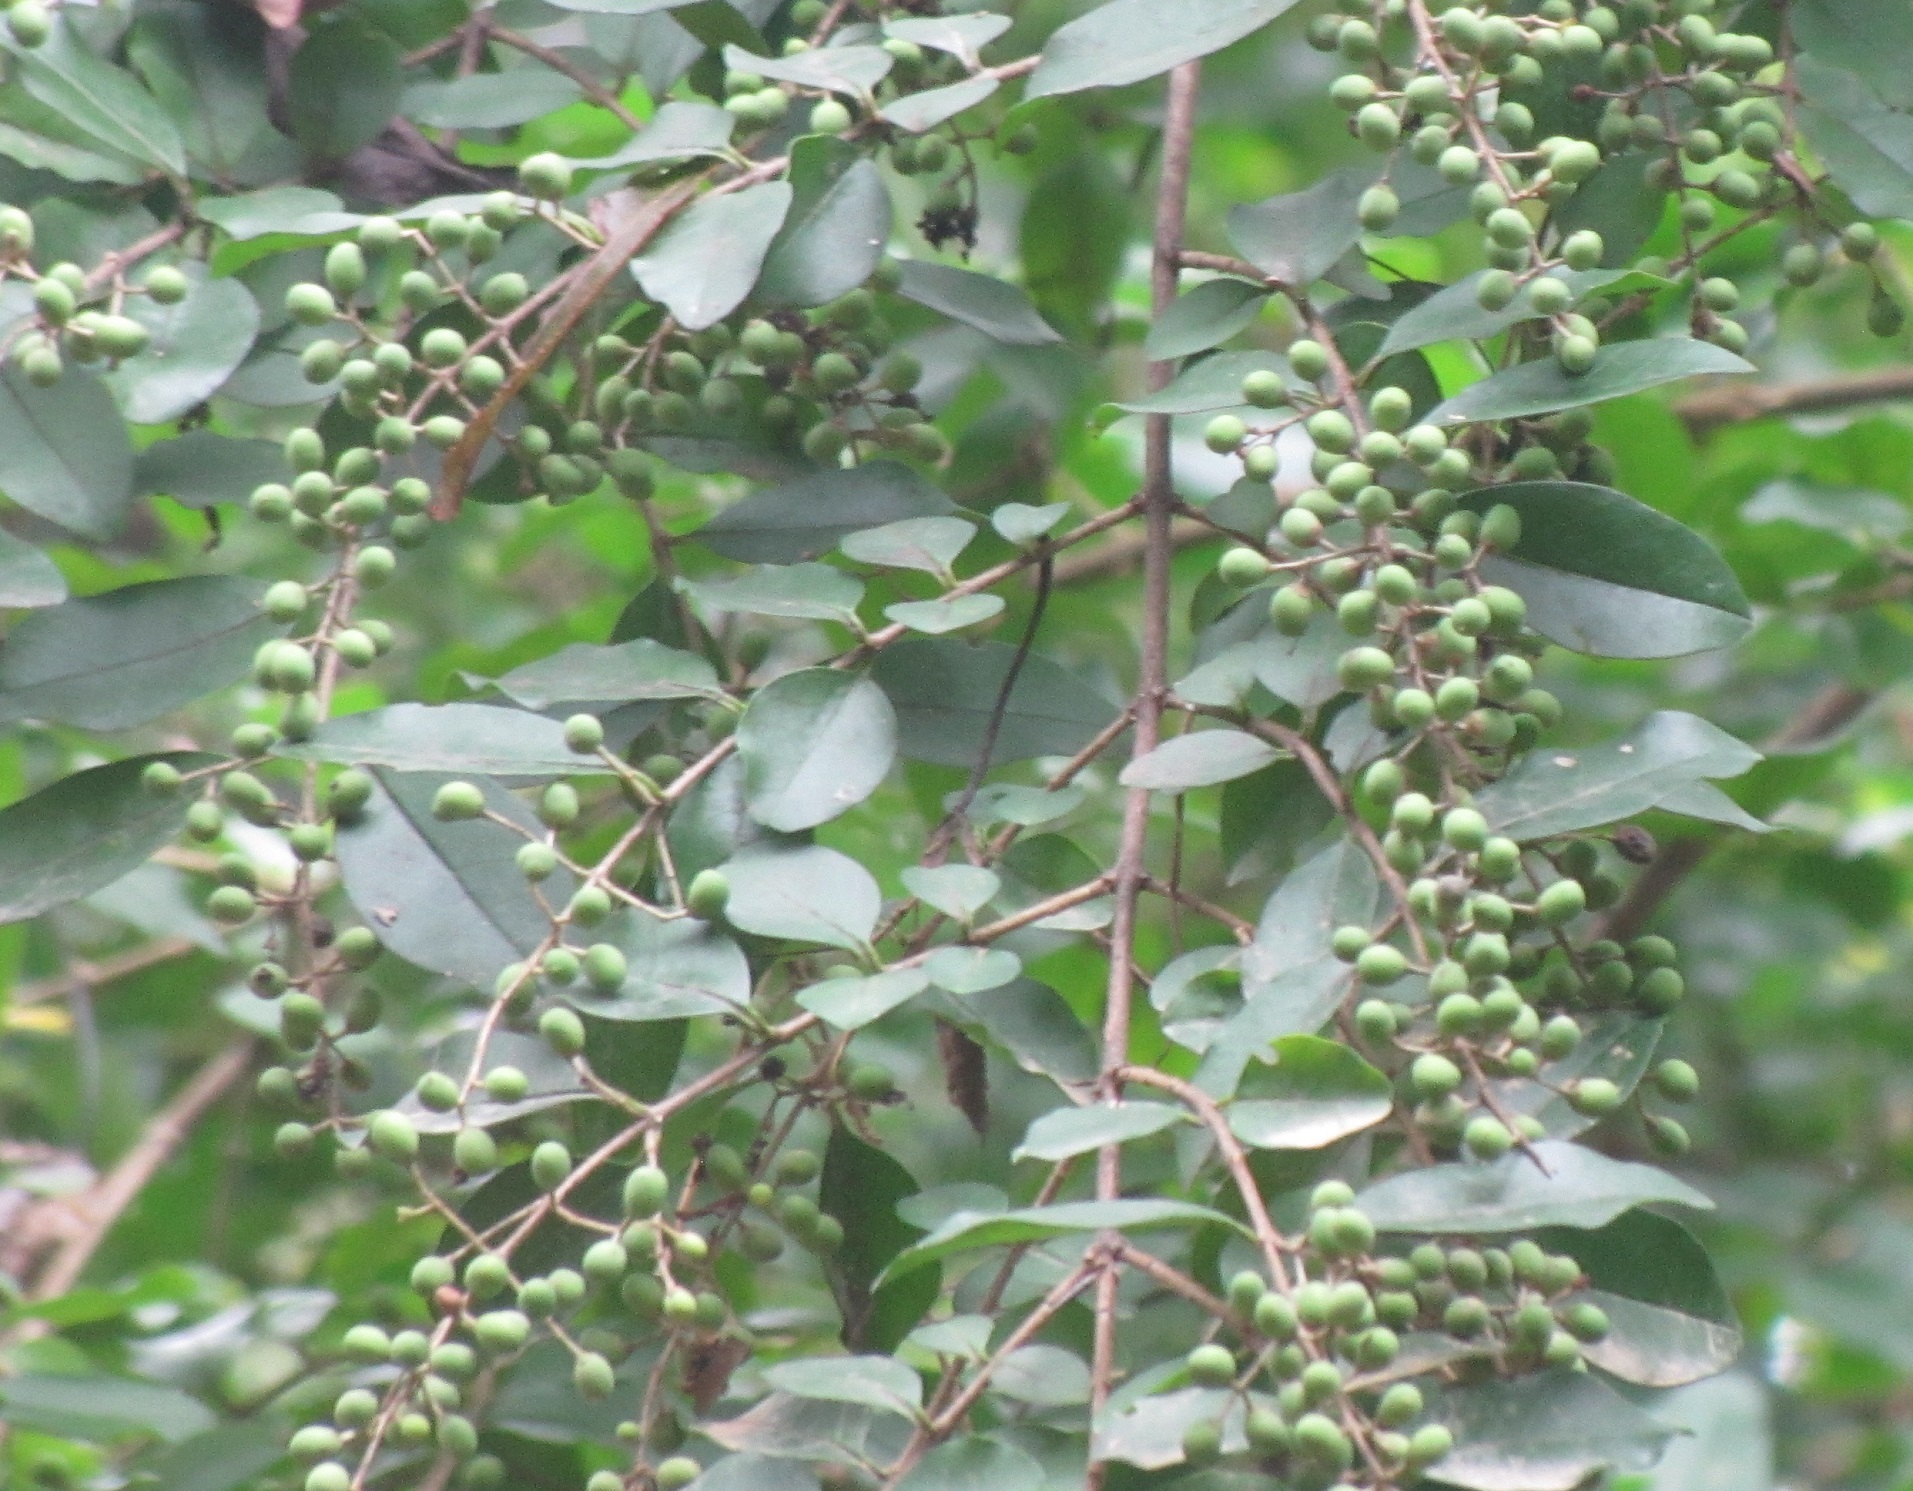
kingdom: Plantae
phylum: Tracheophyta
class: Magnoliopsida
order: Lamiales
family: Oleaceae
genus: Ligustrum
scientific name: Ligustrum sinense
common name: Chinese privet
